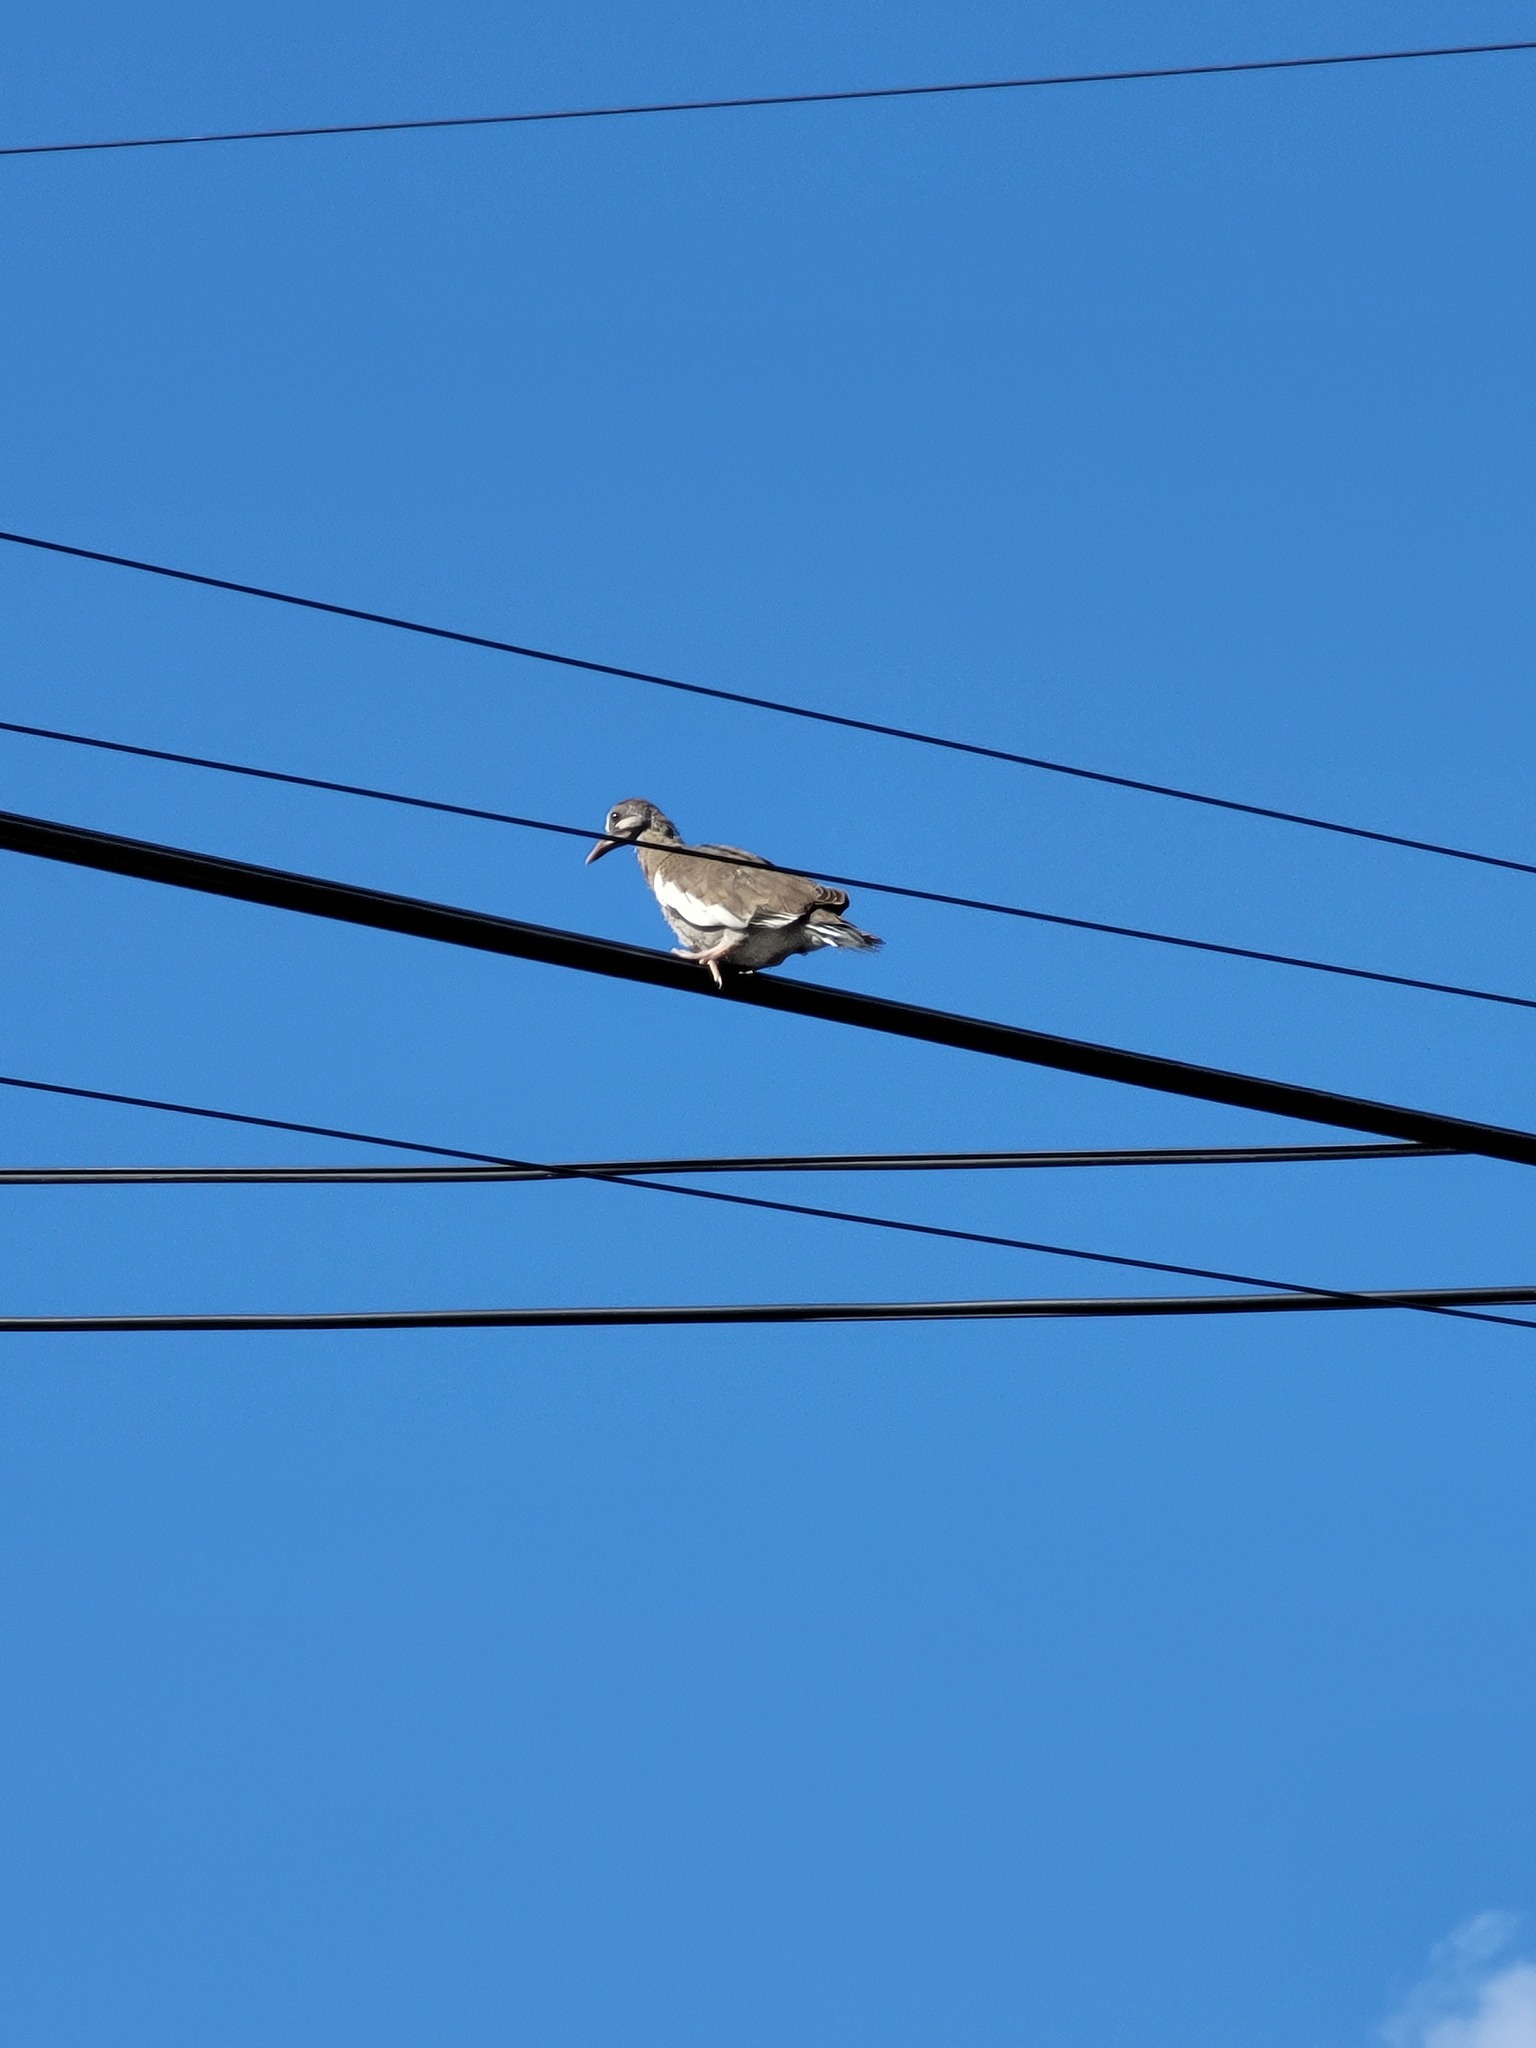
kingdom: Animalia
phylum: Chordata
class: Aves
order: Columbiformes
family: Columbidae
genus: Zenaida
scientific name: Zenaida asiatica
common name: White-winged dove
